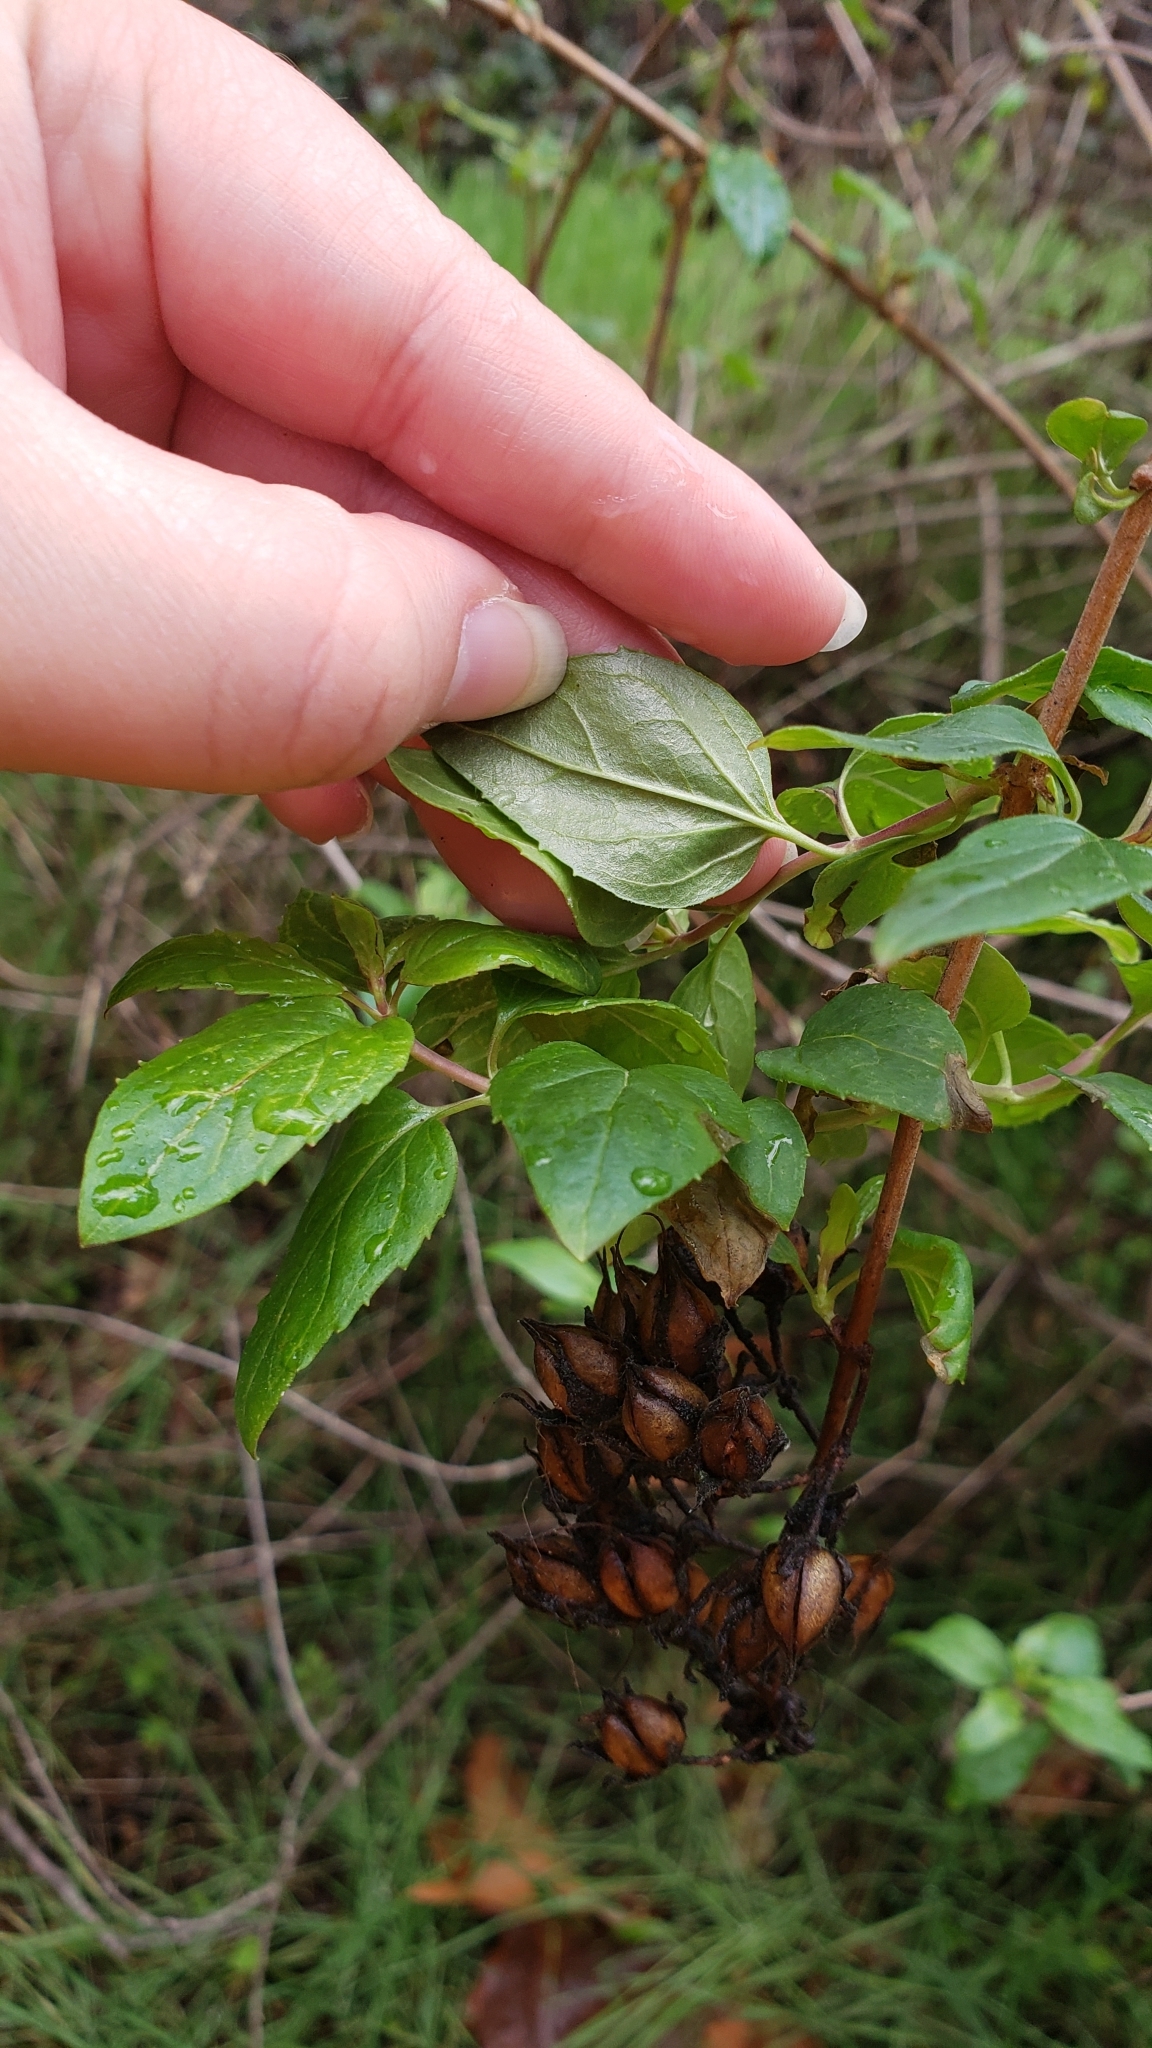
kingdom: Plantae
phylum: Tracheophyta
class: Magnoliopsida
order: Lamiales
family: Plantaginaceae
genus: Keckiella
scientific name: Keckiella cordifolia
